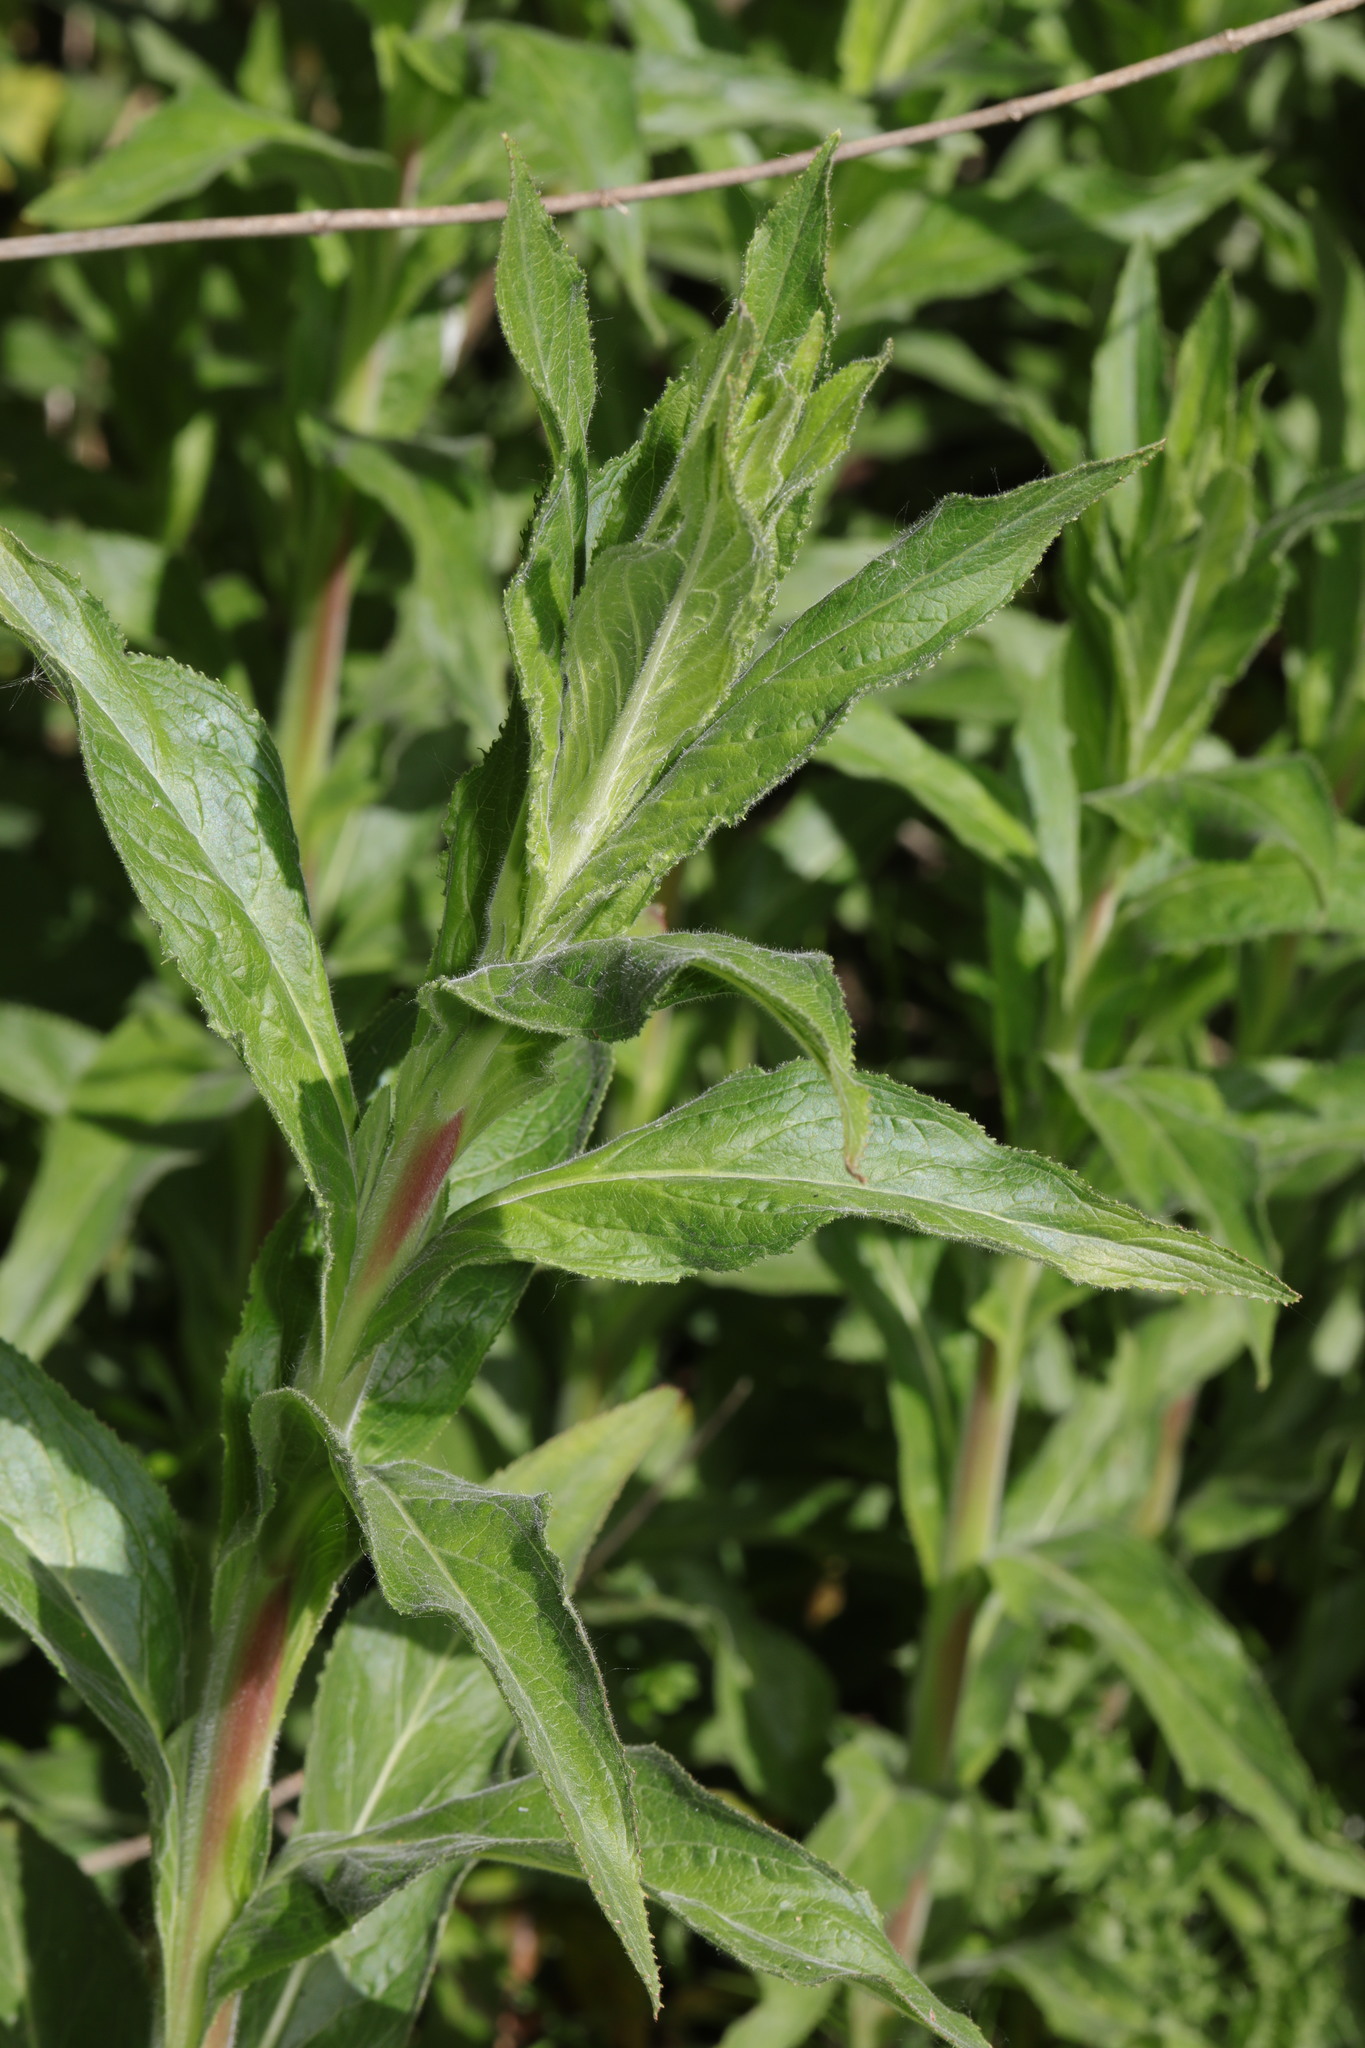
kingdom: Plantae
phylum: Tracheophyta
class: Magnoliopsida
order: Myrtales
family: Onagraceae
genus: Epilobium
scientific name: Epilobium hirsutum
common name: Great willowherb
